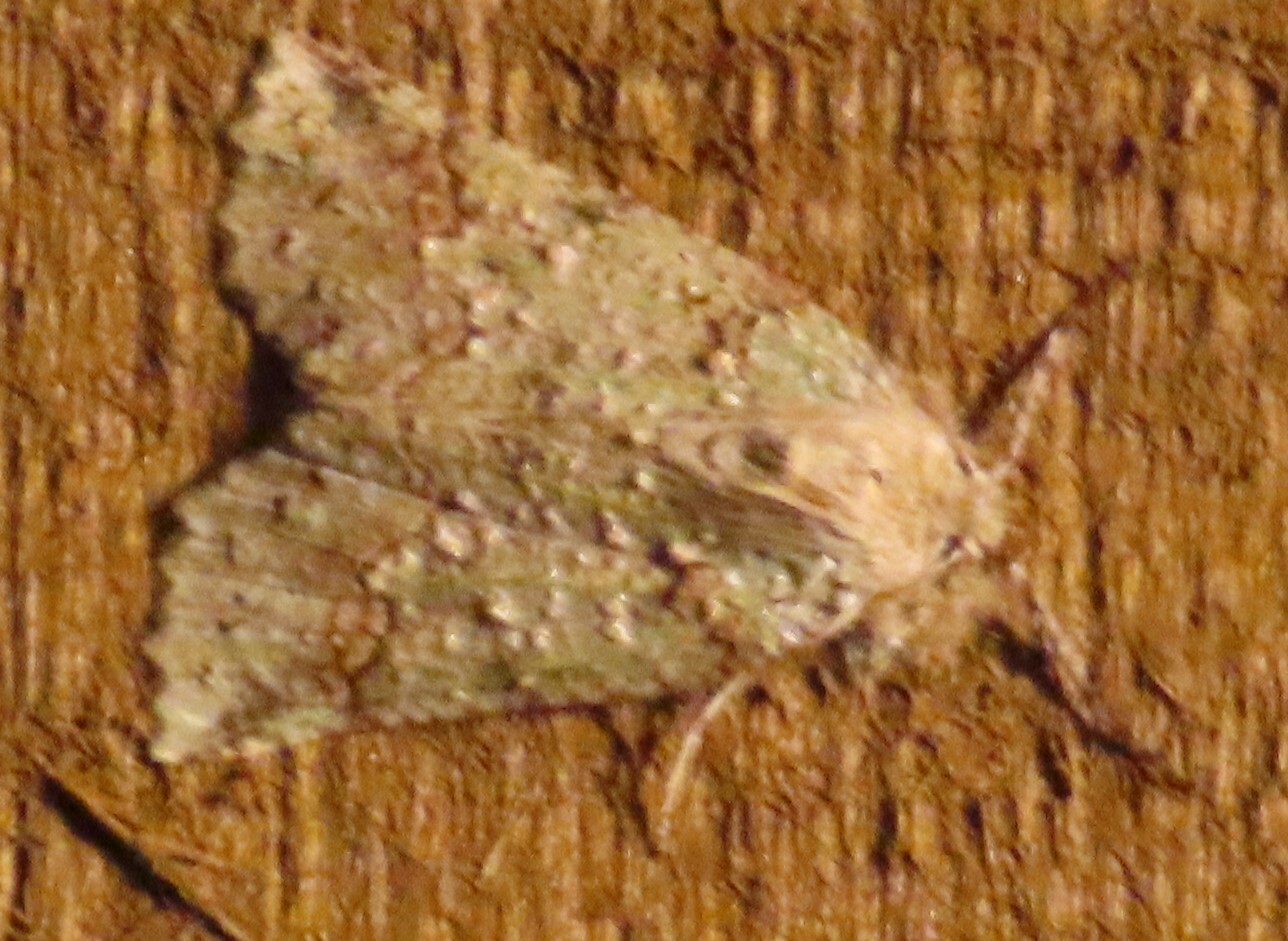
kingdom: Animalia
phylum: Arthropoda
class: Insecta
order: Lepidoptera
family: Geometridae
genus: Declana
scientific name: Declana floccosa
